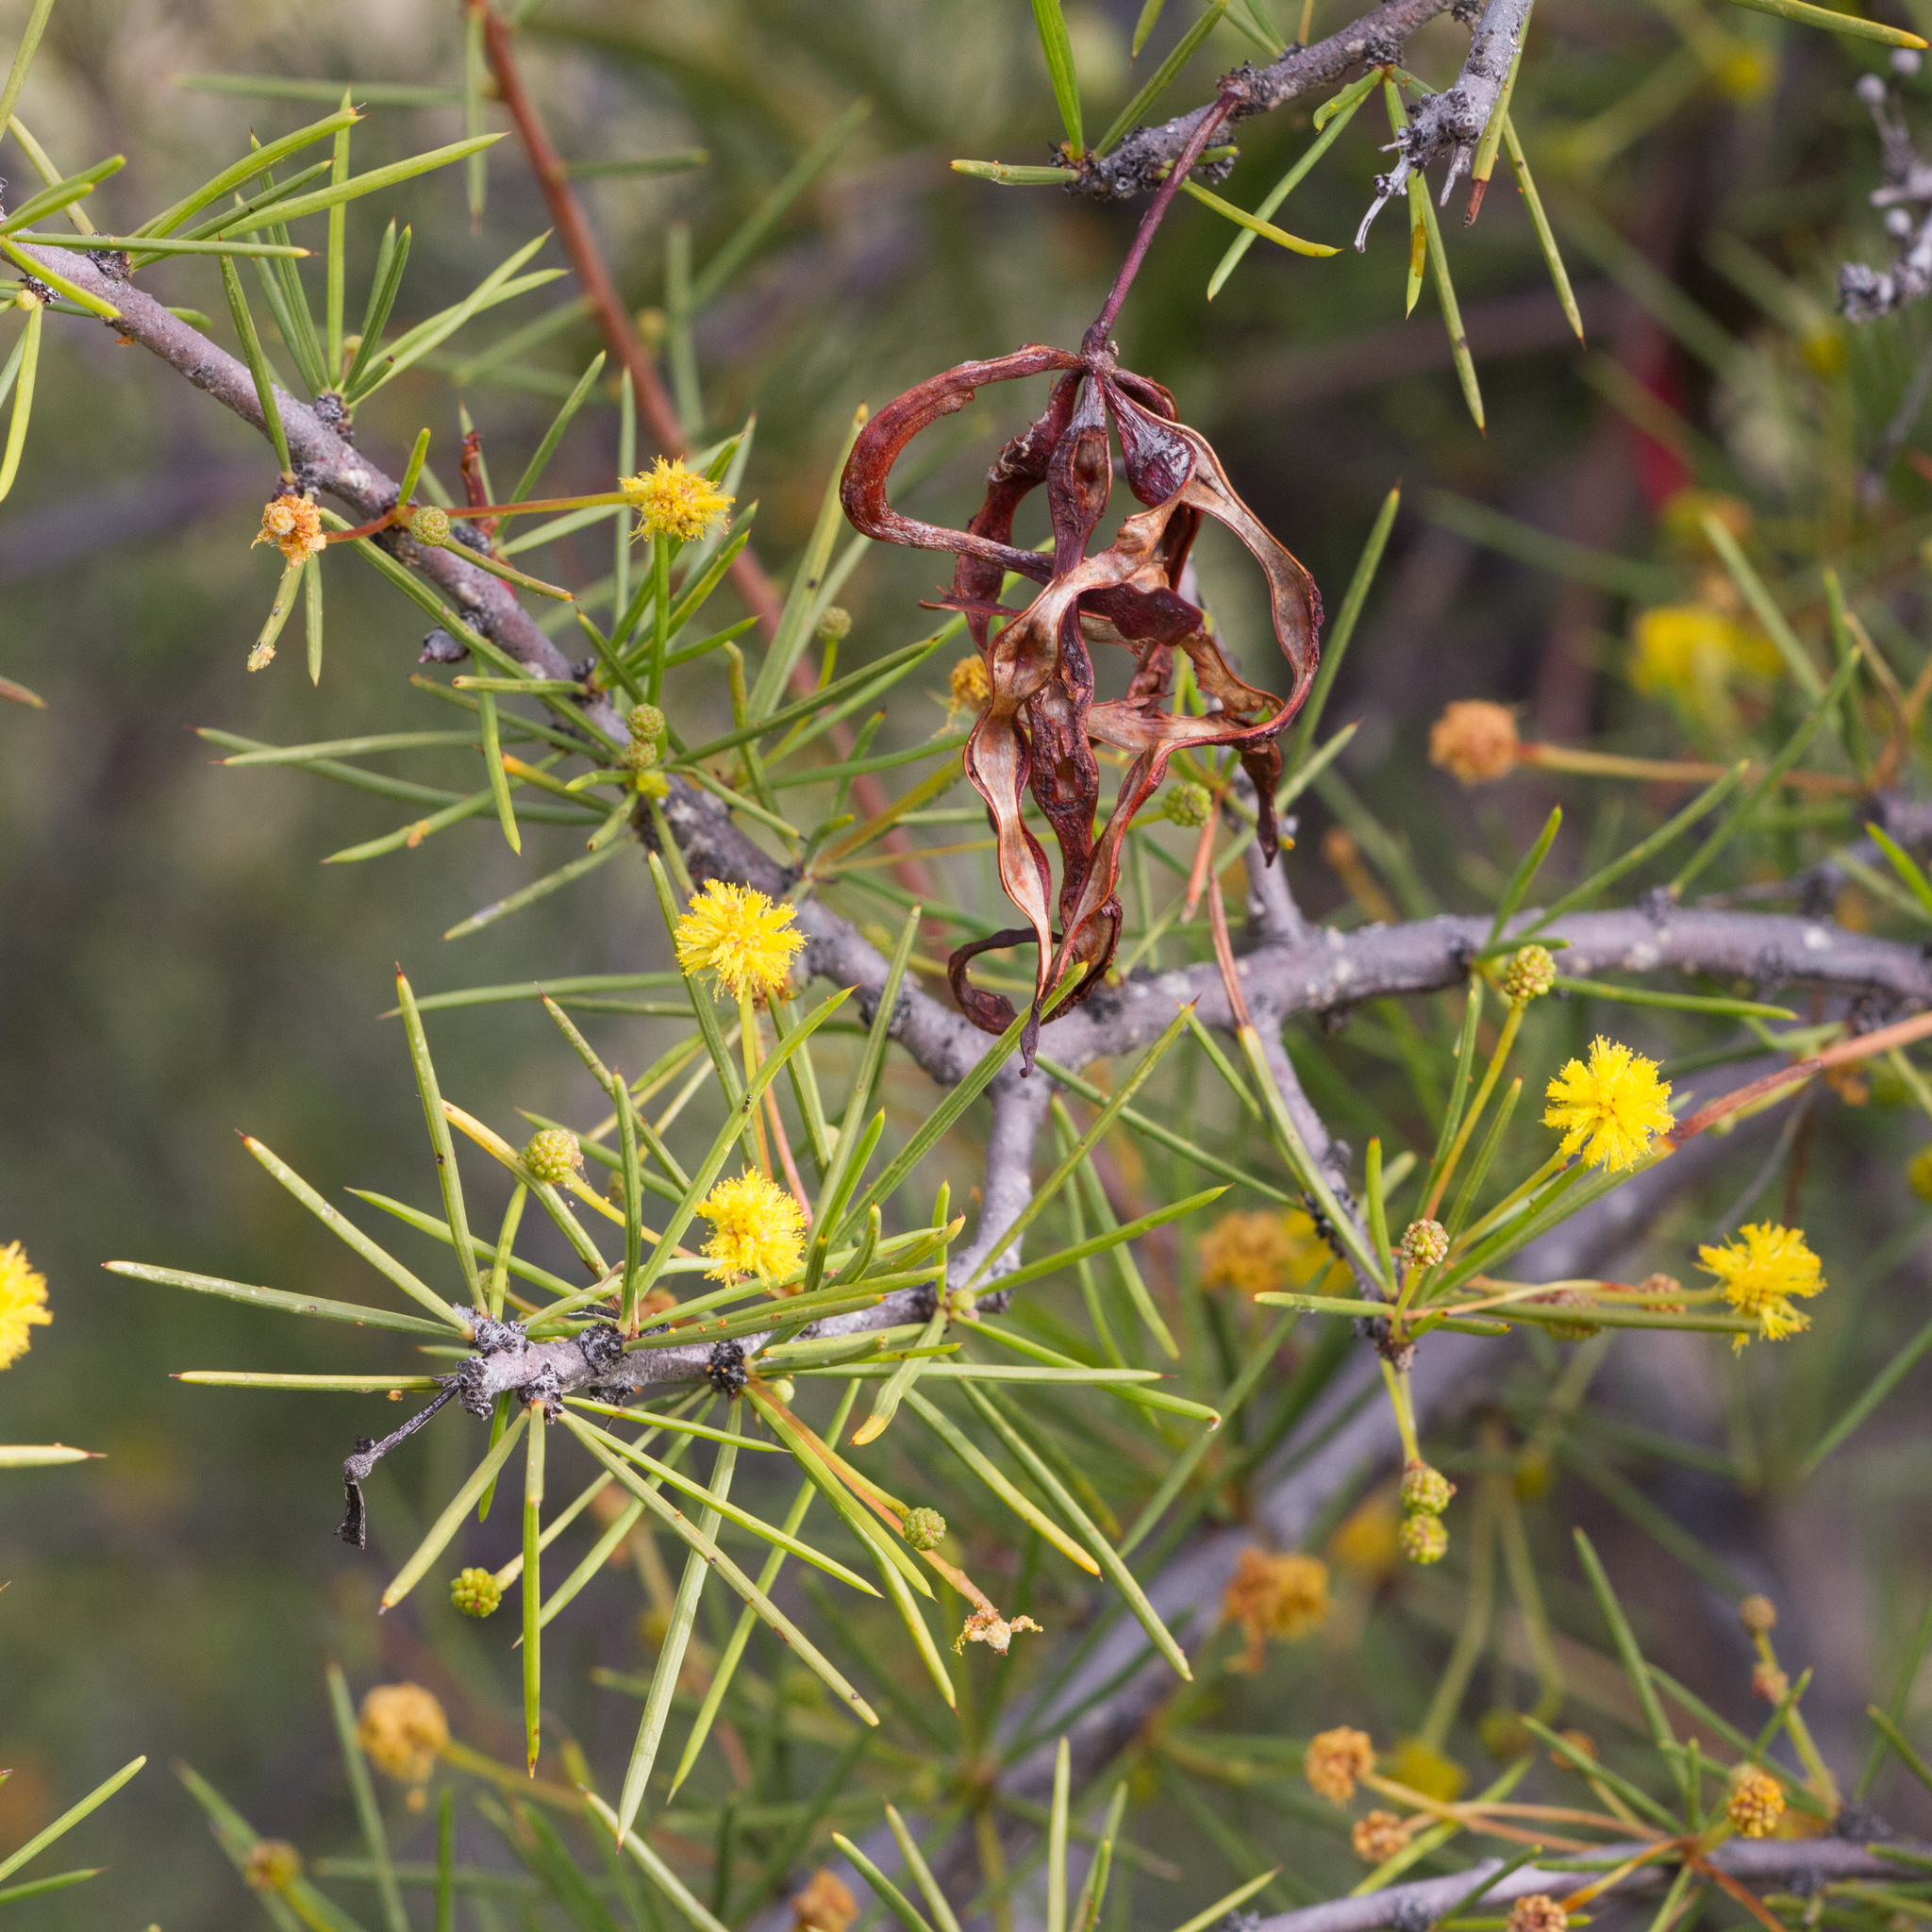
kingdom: Plantae
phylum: Tracheophyta
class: Magnoliopsida
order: Fabales
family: Fabaceae
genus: Acacia
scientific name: Acacia tetragonophylla
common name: Dead finish
